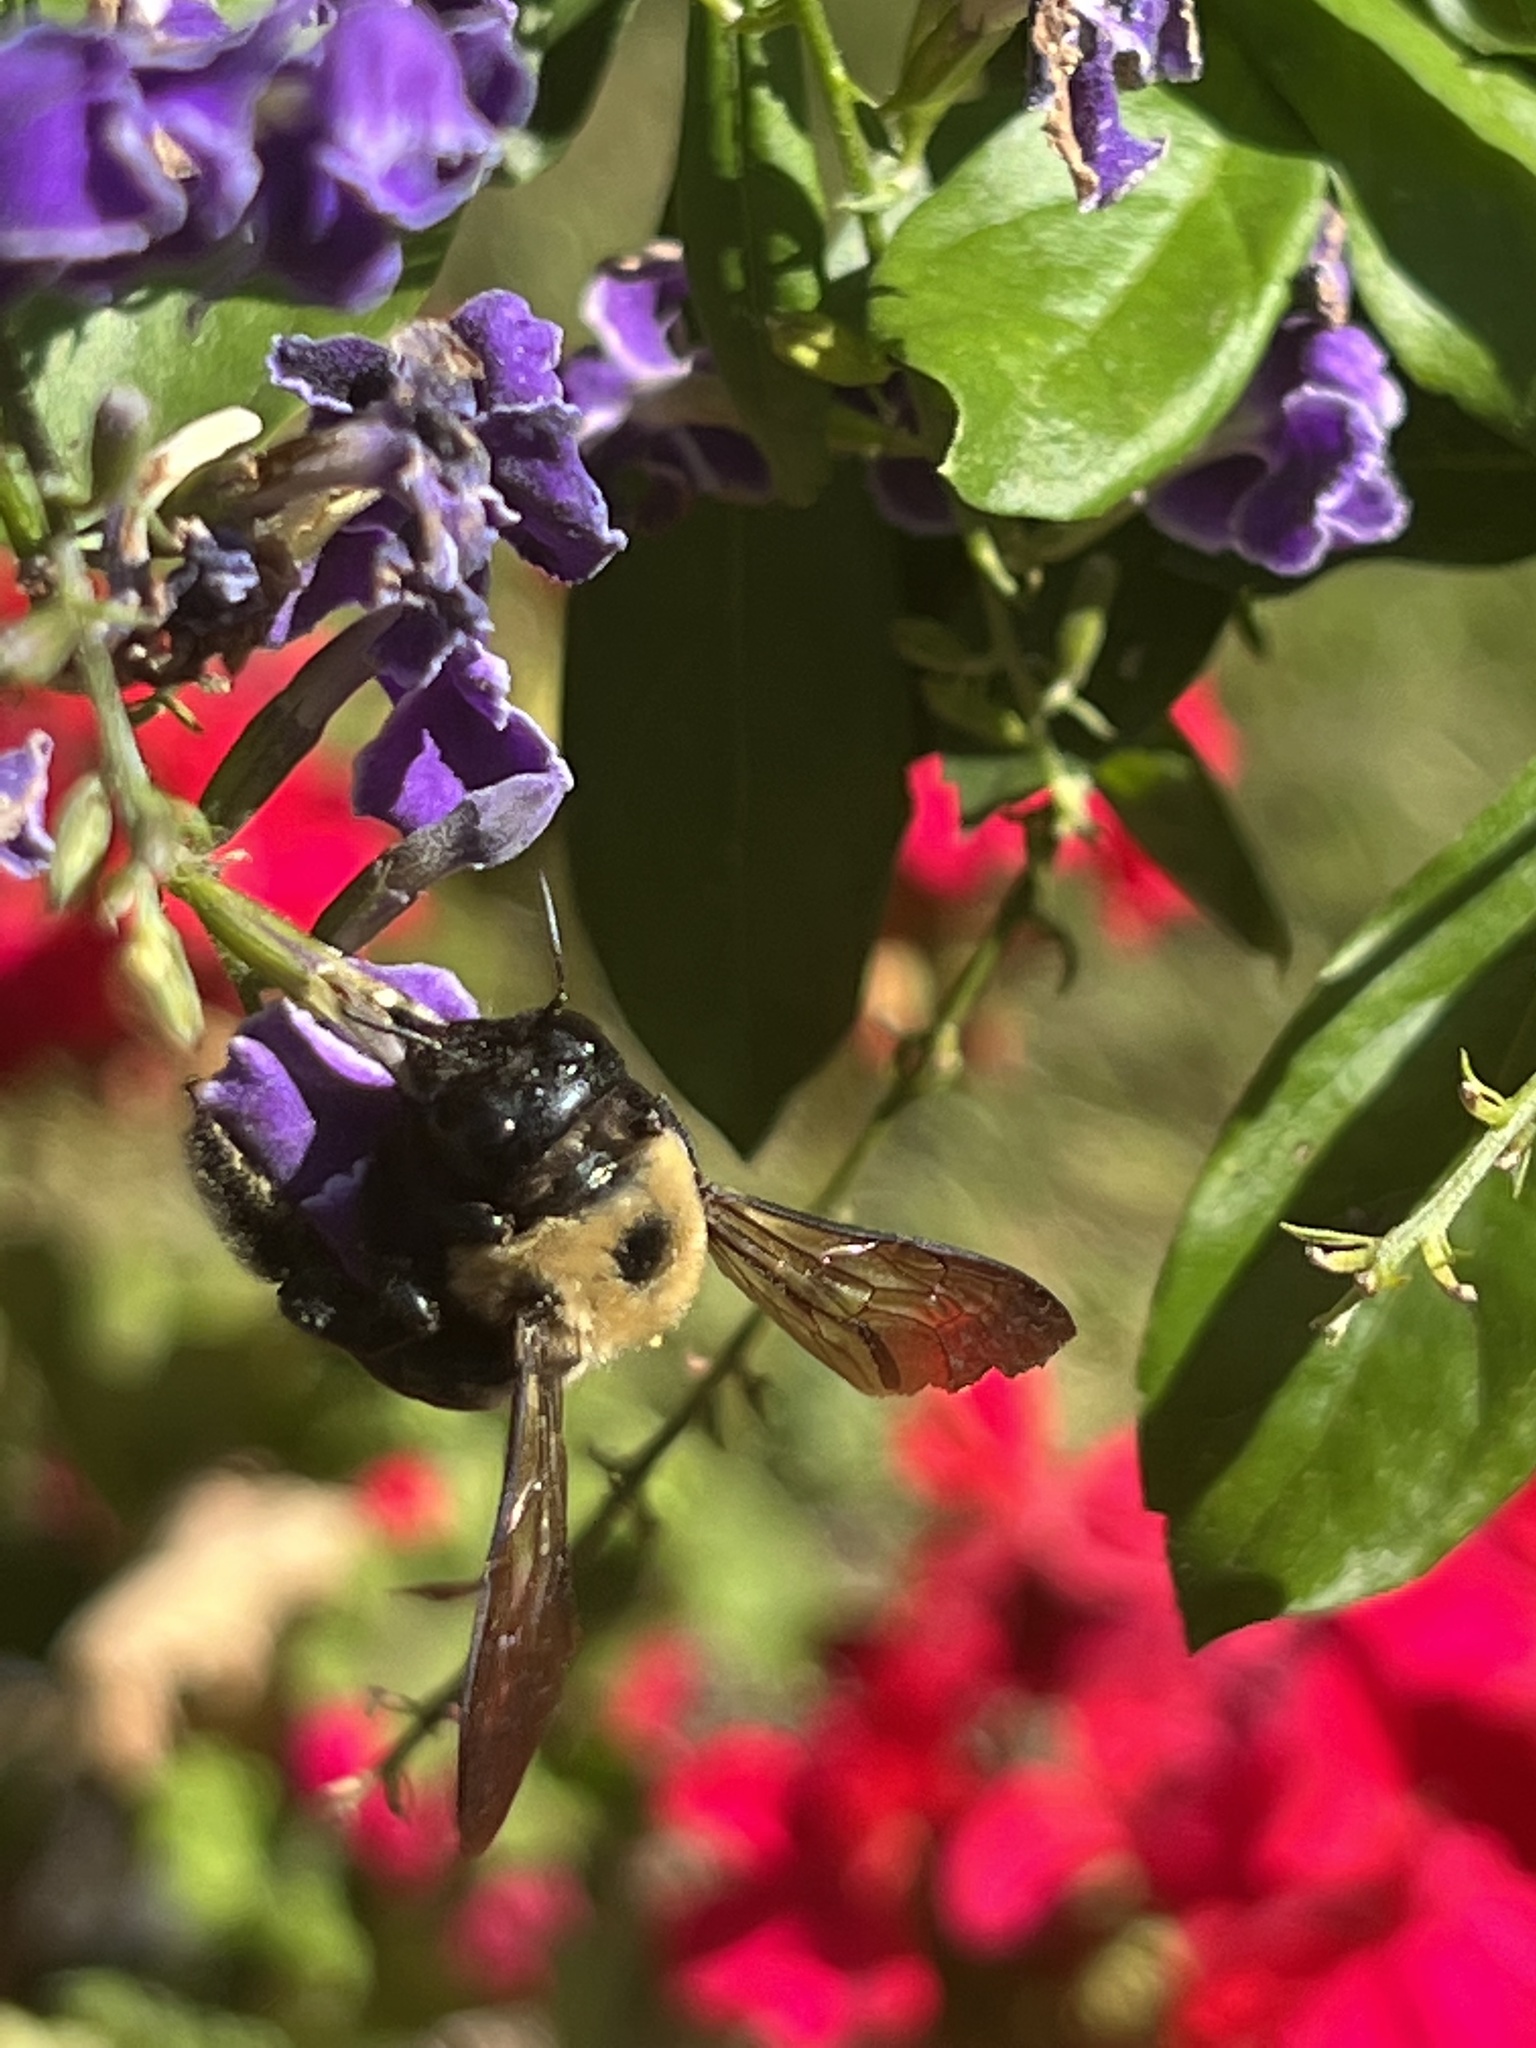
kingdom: Animalia
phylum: Arthropoda
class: Insecta
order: Hymenoptera
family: Apidae
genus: Xylocopa
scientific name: Xylocopa virginica
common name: Carpenter bee
